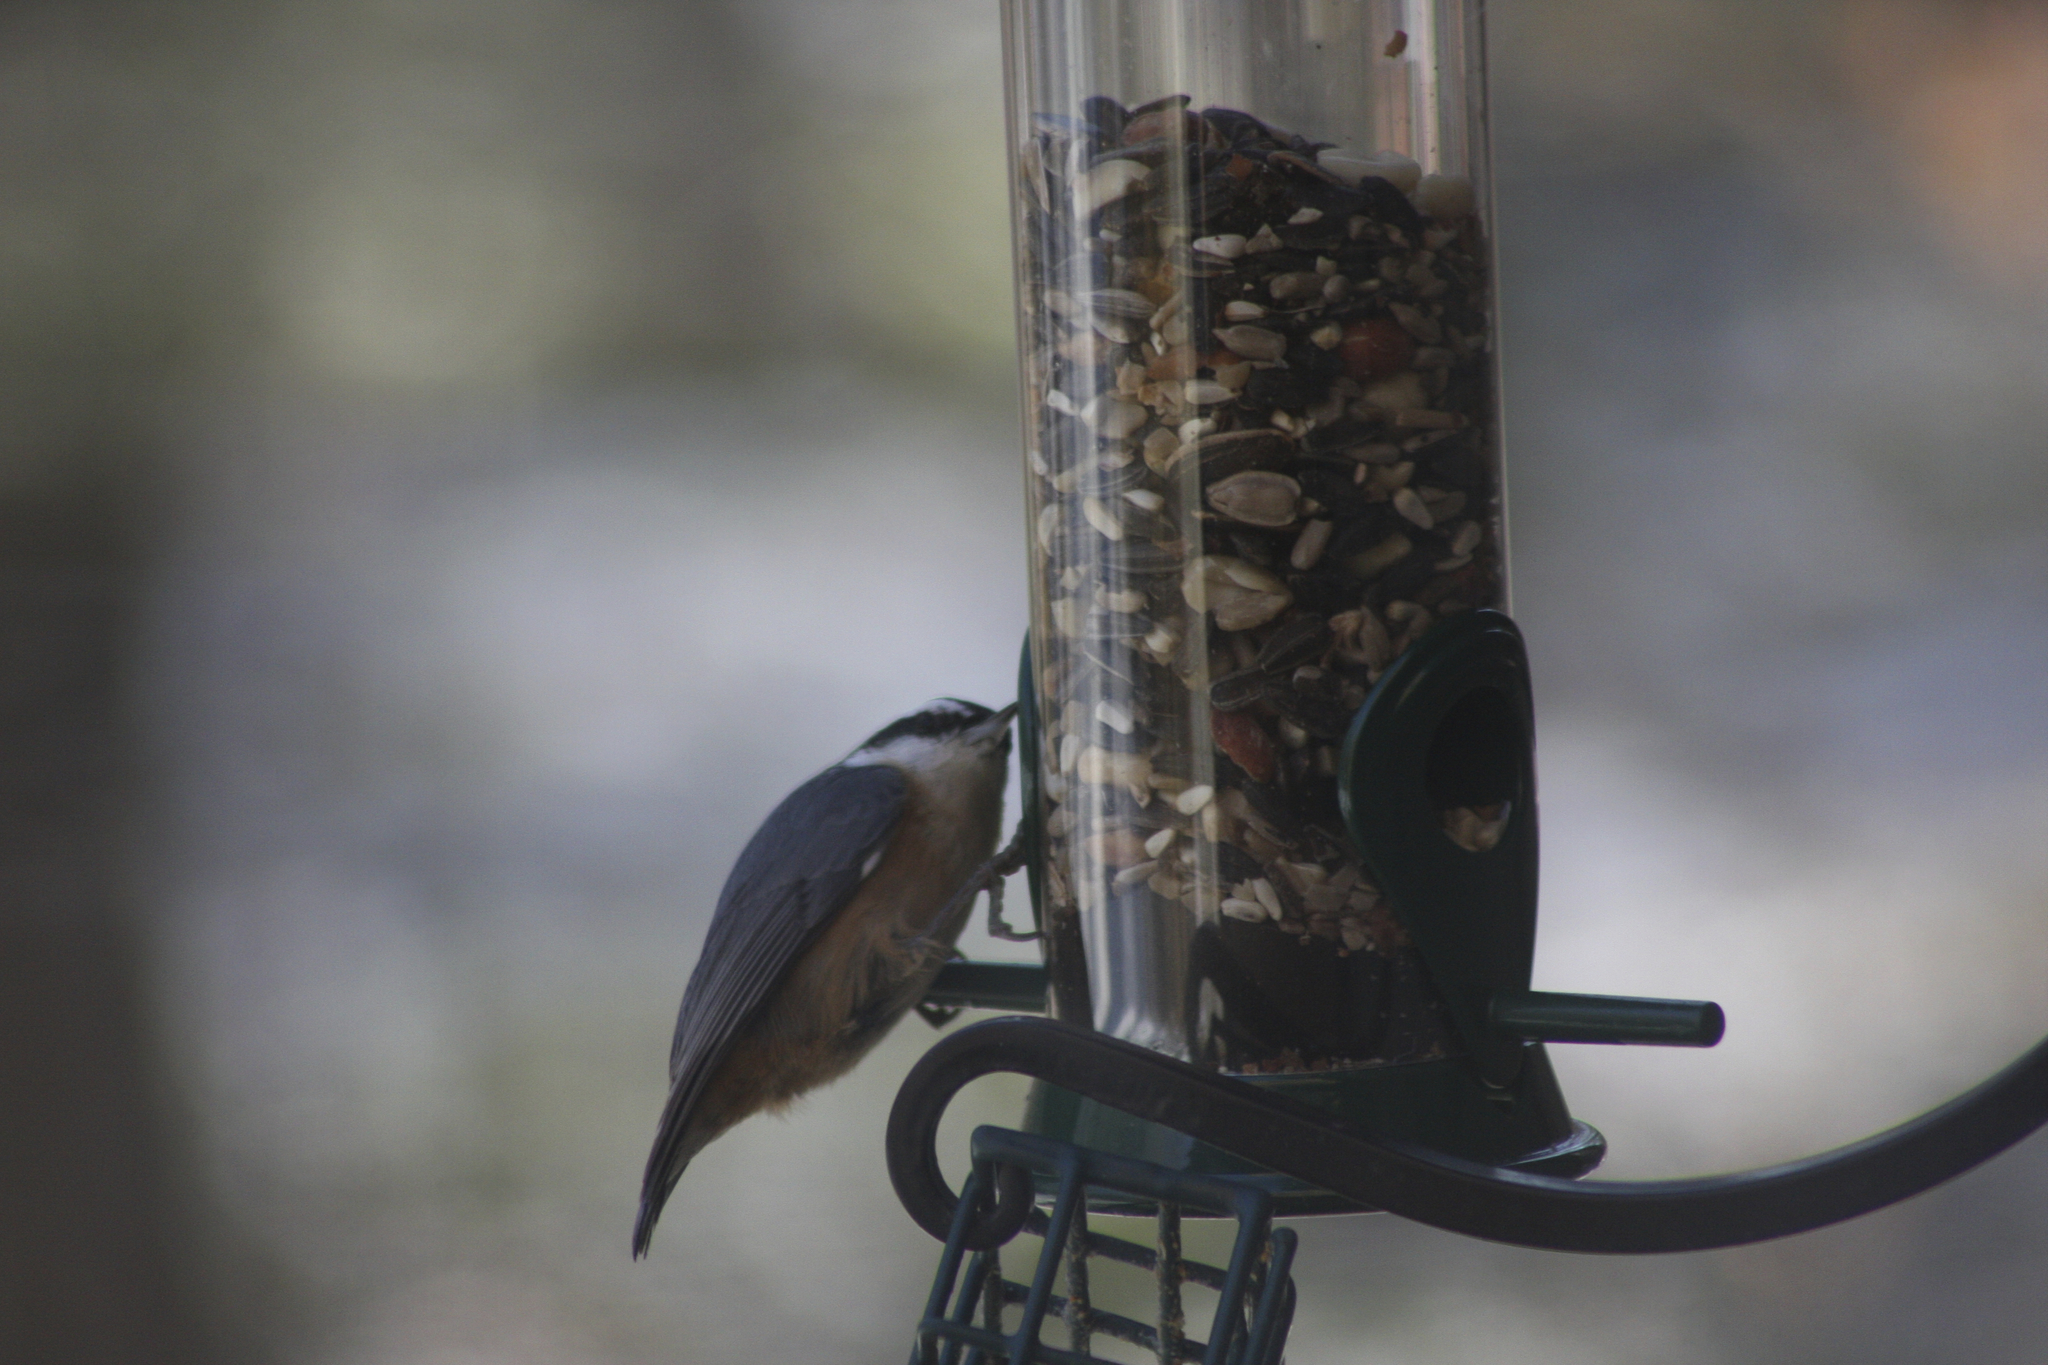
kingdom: Animalia
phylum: Chordata
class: Aves
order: Passeriformes
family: Sittidae
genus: Sitta
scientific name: Sitta canadensis
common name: Red-breasted nuthatch
